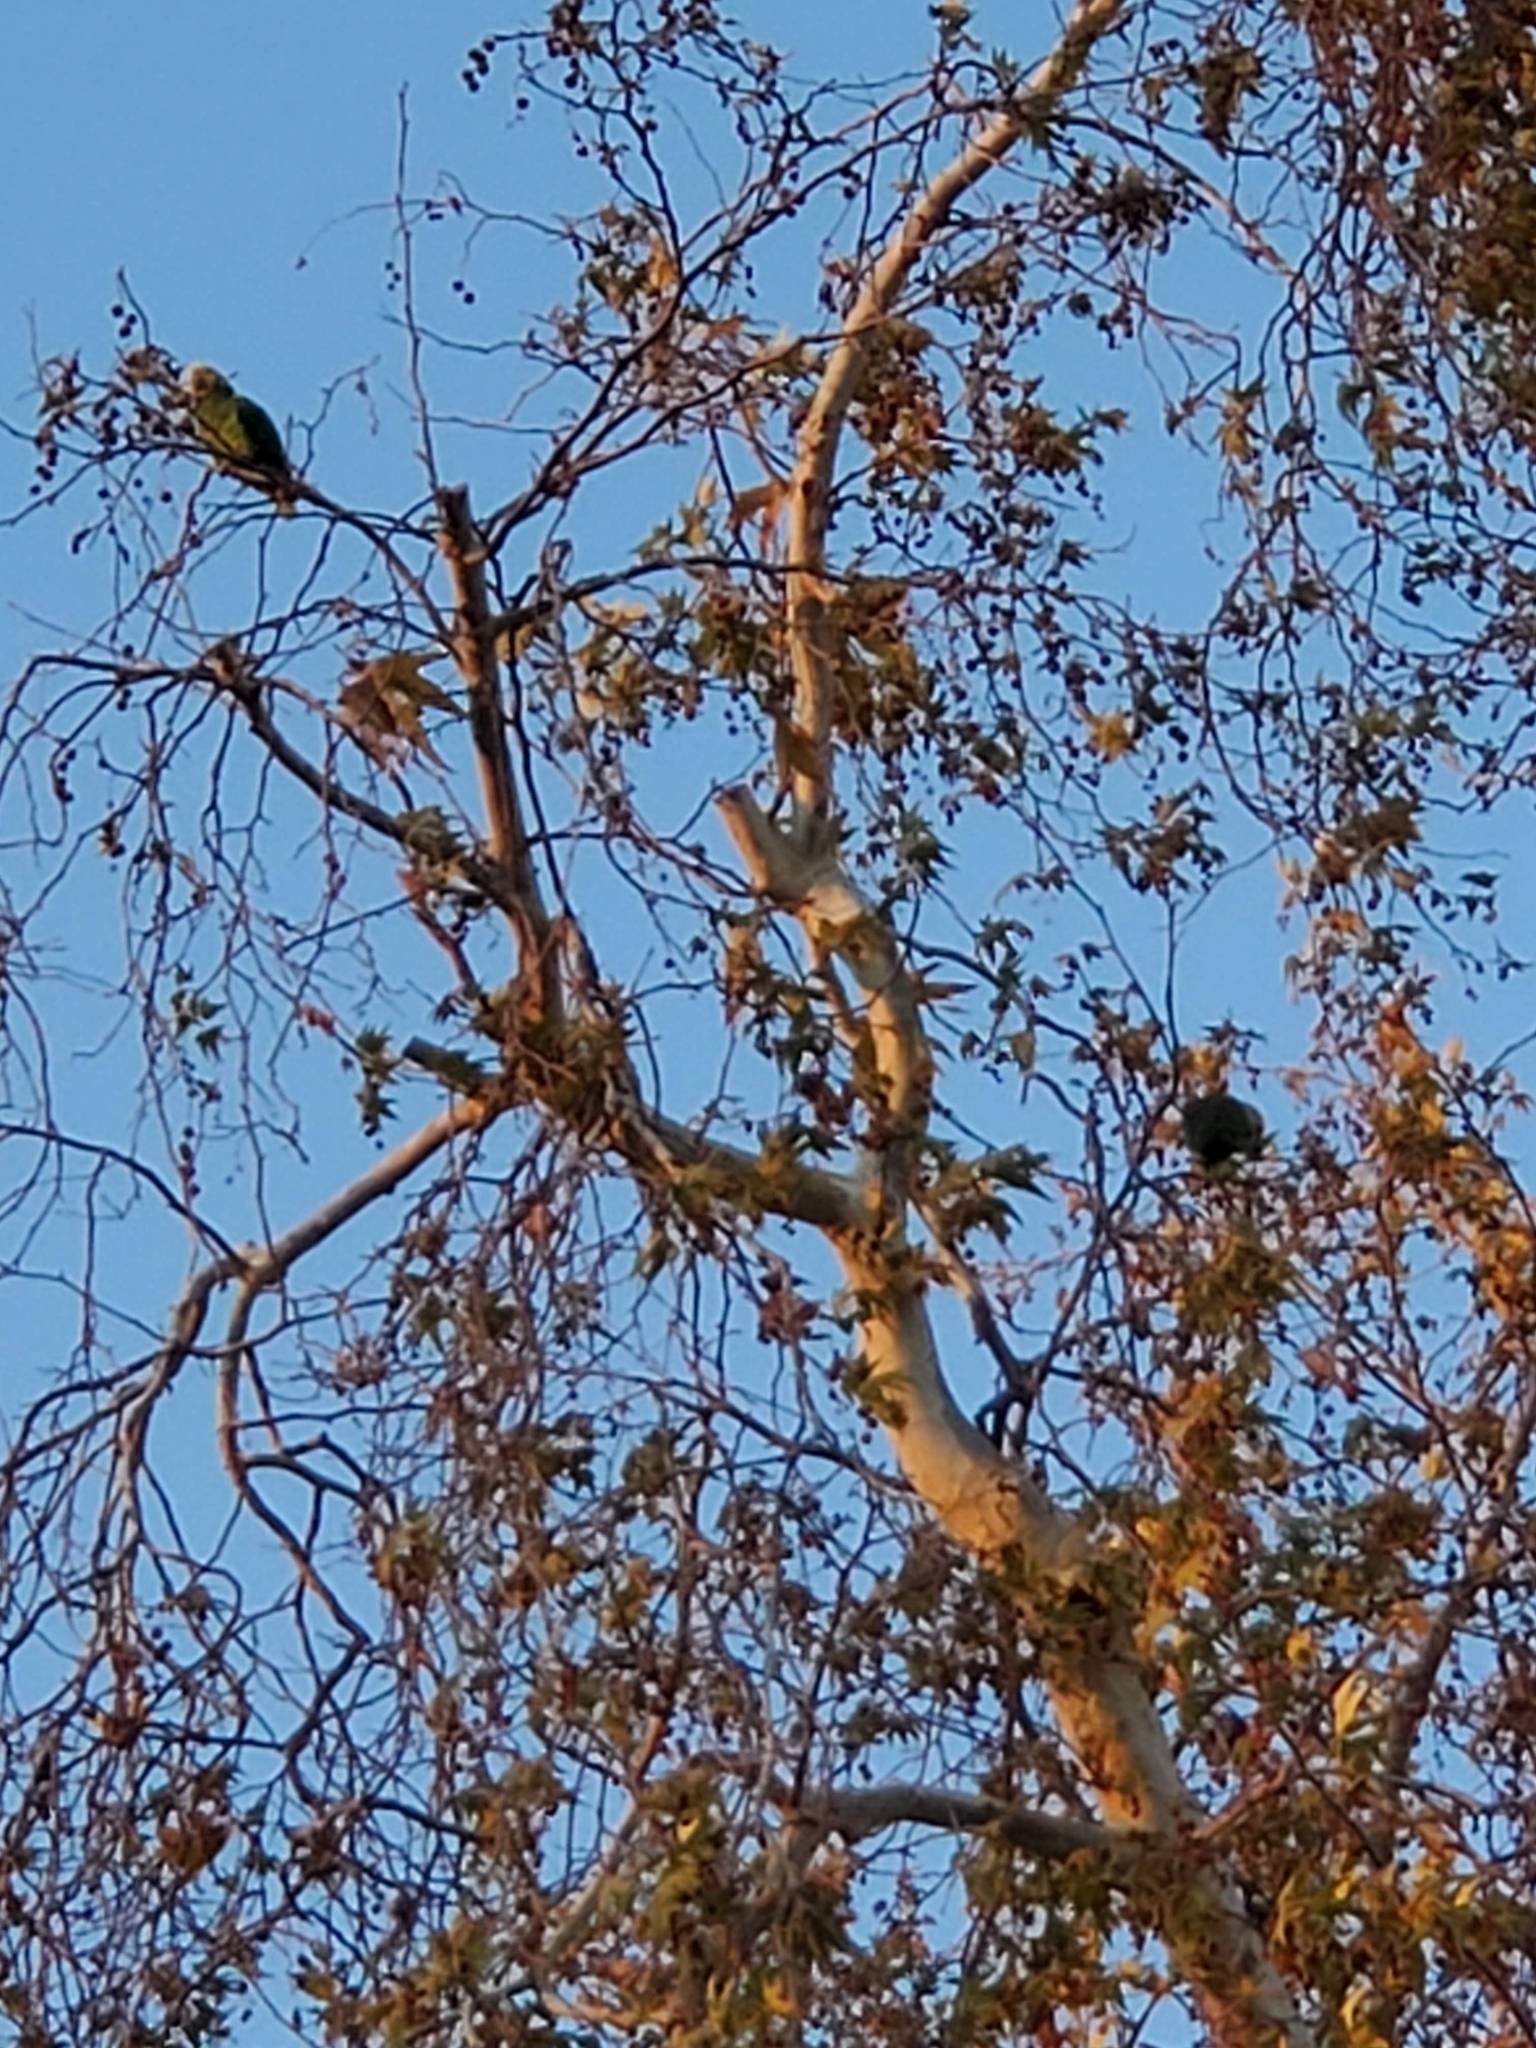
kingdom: Animalia
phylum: Chordata
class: Aves
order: Psittaciformes
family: Psittacidae
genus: Amazona
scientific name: Amazona oratrix
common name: Yellow-headed amazon
